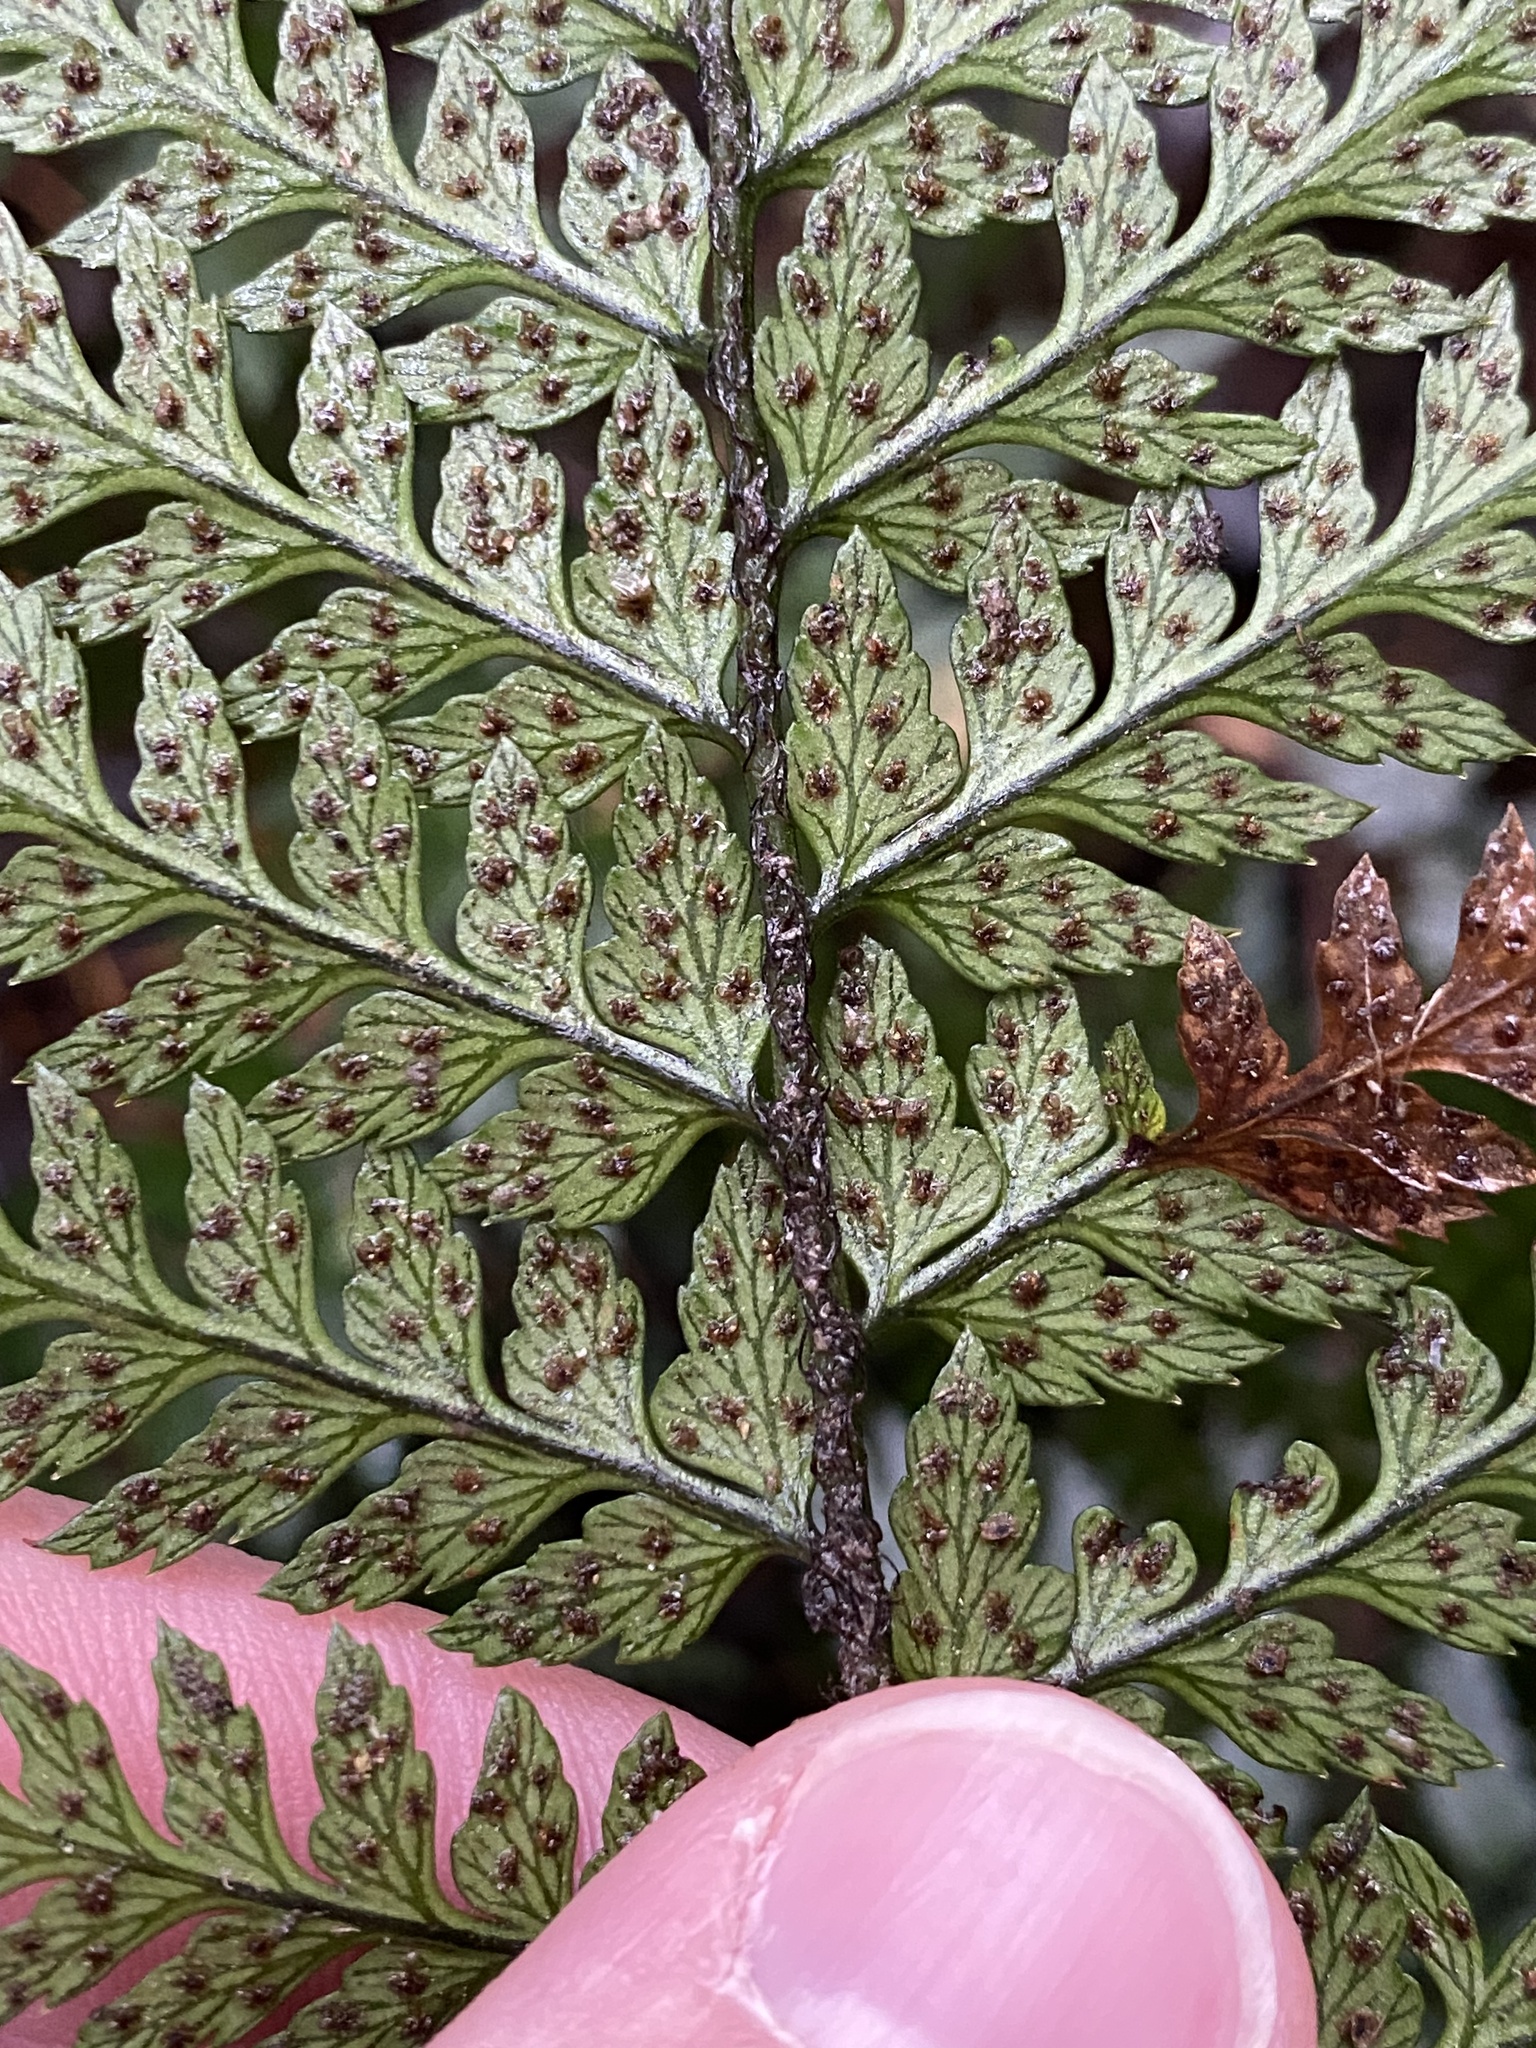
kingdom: Plantae
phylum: Tracheophyta
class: Polypodiopsida
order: Polypodiales
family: Dryopteridaceae
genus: Polystichum
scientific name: Polystichum oculatum
